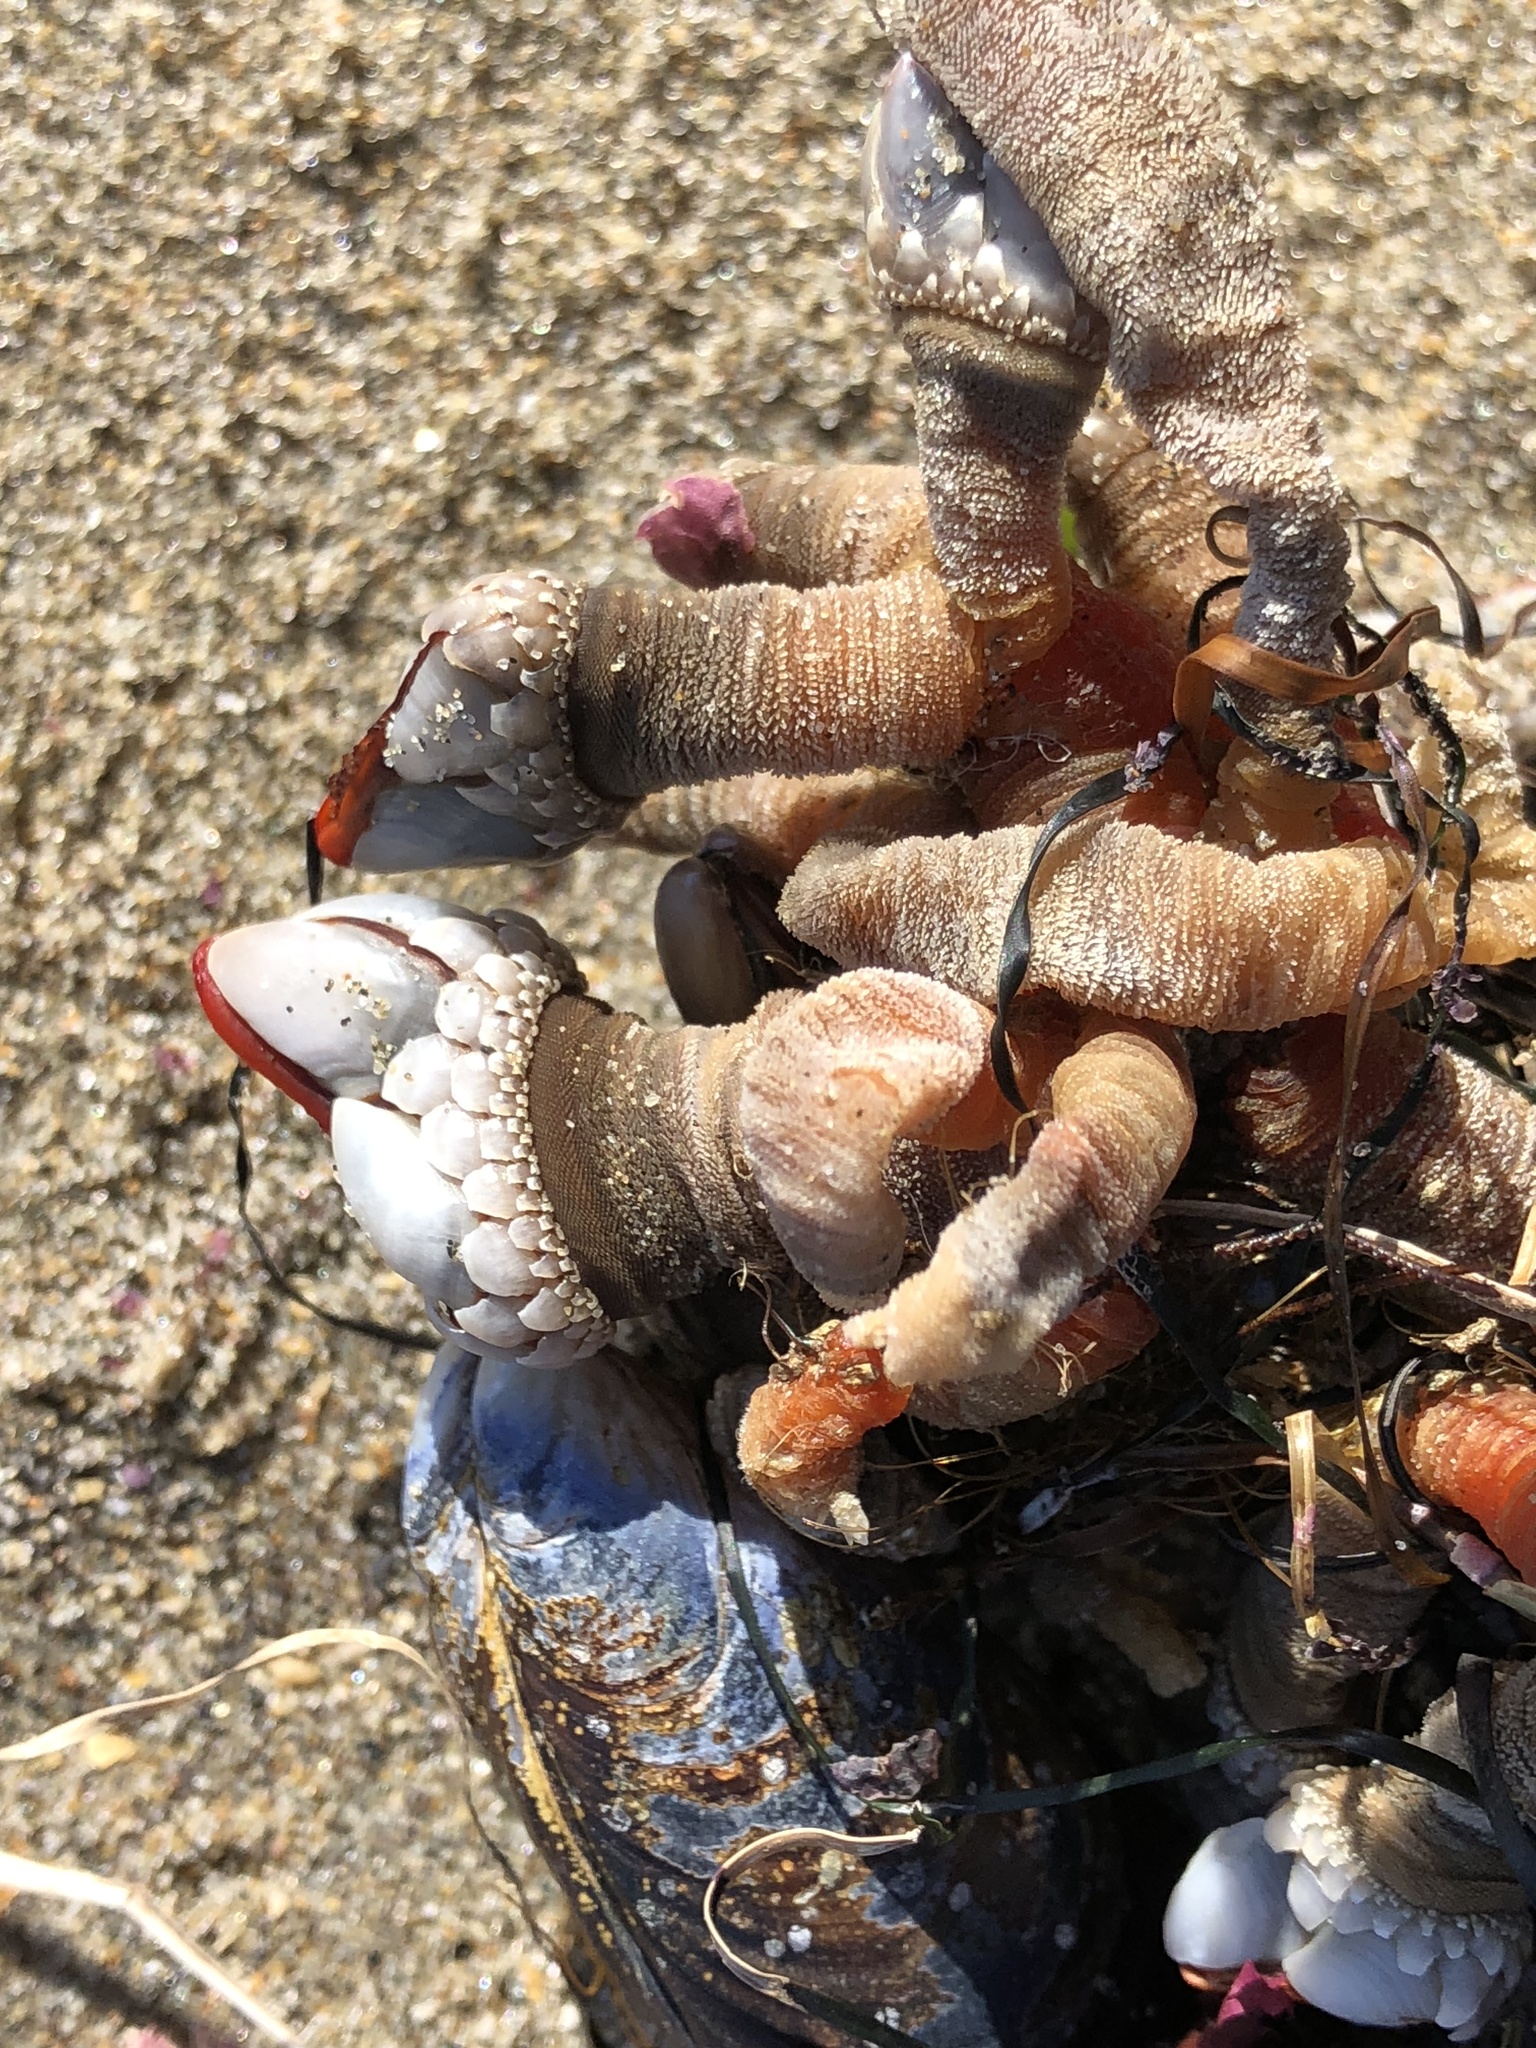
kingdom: Animalia
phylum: Arthropoda
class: Maxillopoda
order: Pedunculata
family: Pollicipedidae
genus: Pollicipes
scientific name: Pollicipes polymerus
